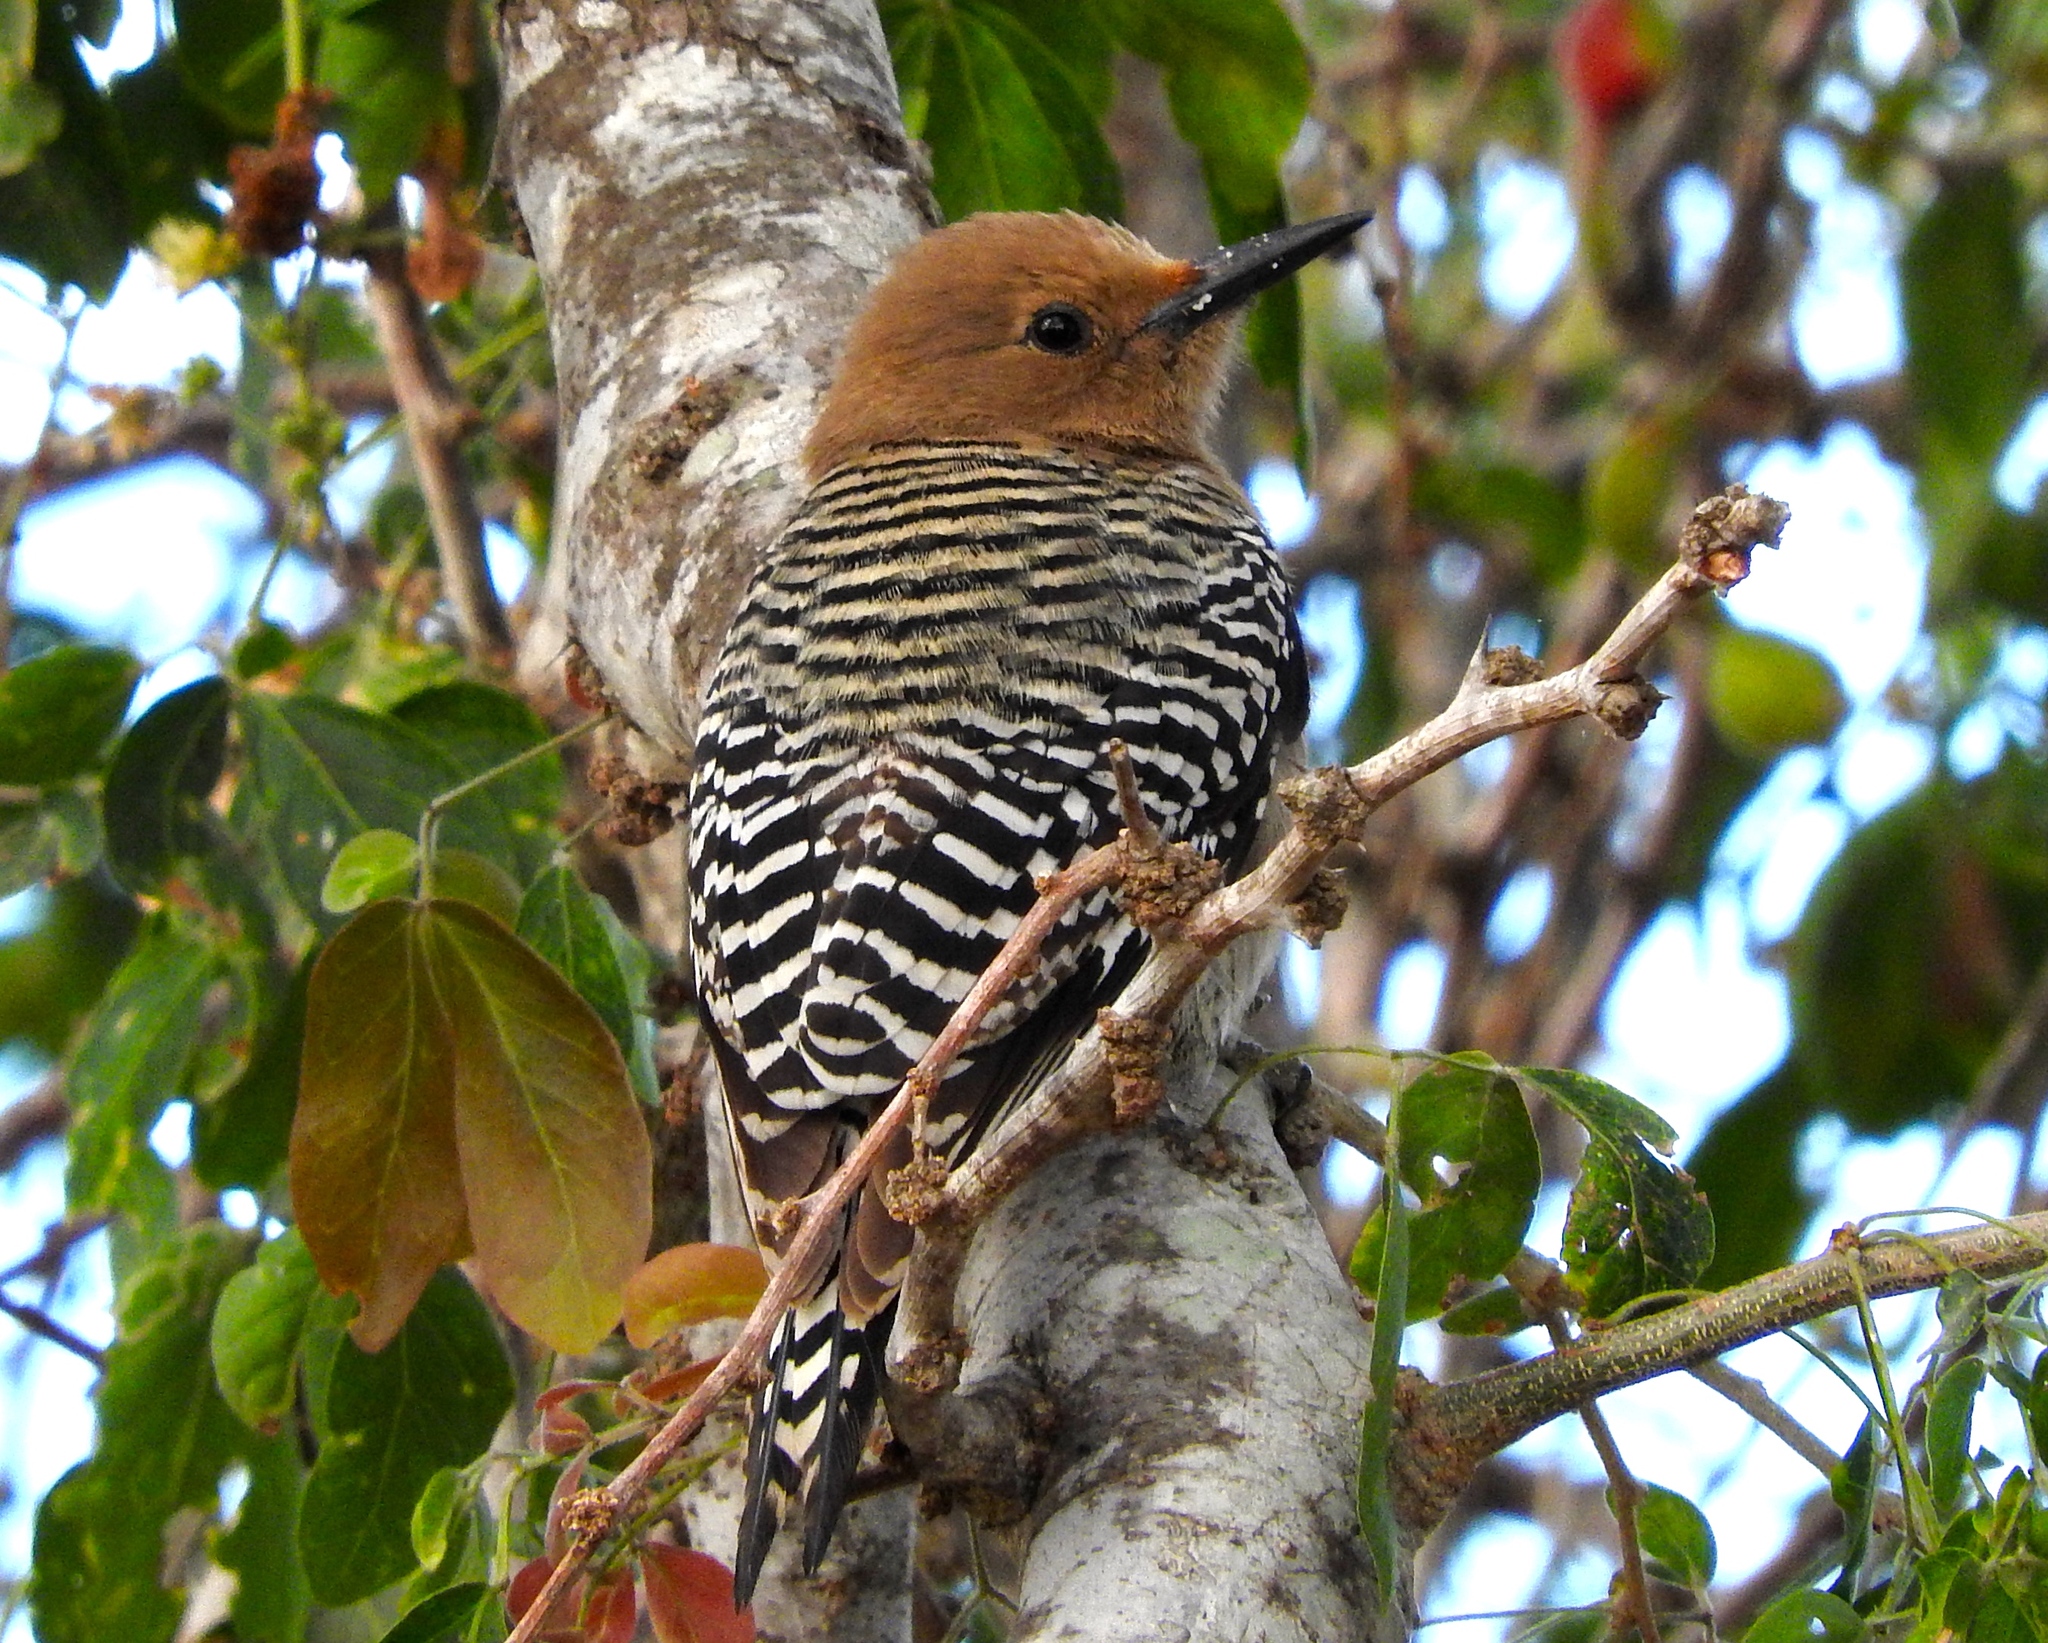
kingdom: Animalia
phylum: Chordata
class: Aves
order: Piciformes
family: Picidae
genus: Melanerpes
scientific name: Melanerpes uropygialis
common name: Gila woodpecker
